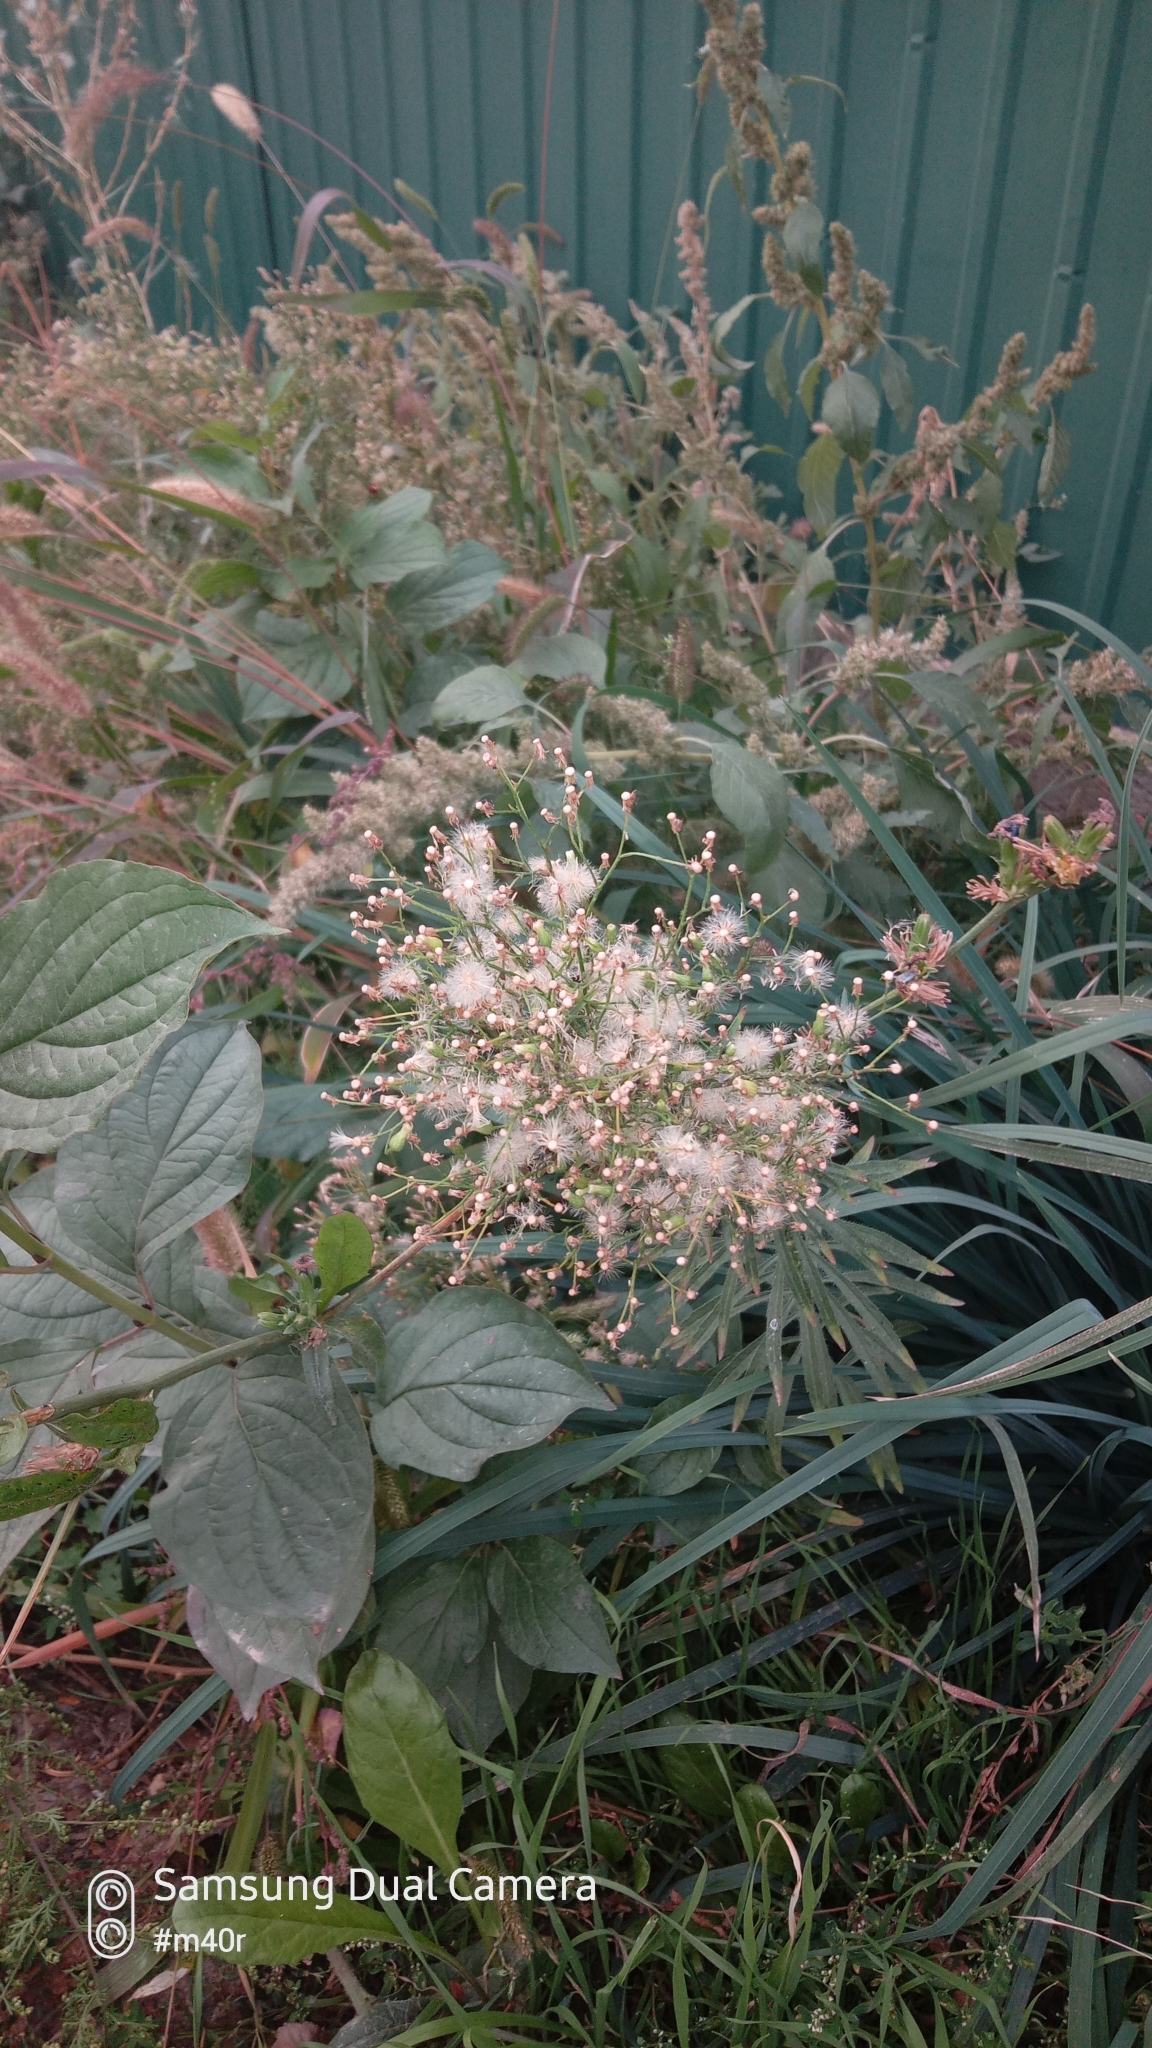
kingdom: Plantae
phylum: Tracheophyta
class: Magnoliopsida
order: Asterales
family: Asteraceae
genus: Erigeron
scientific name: Erigeron canadensis
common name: Canadian fleabane
